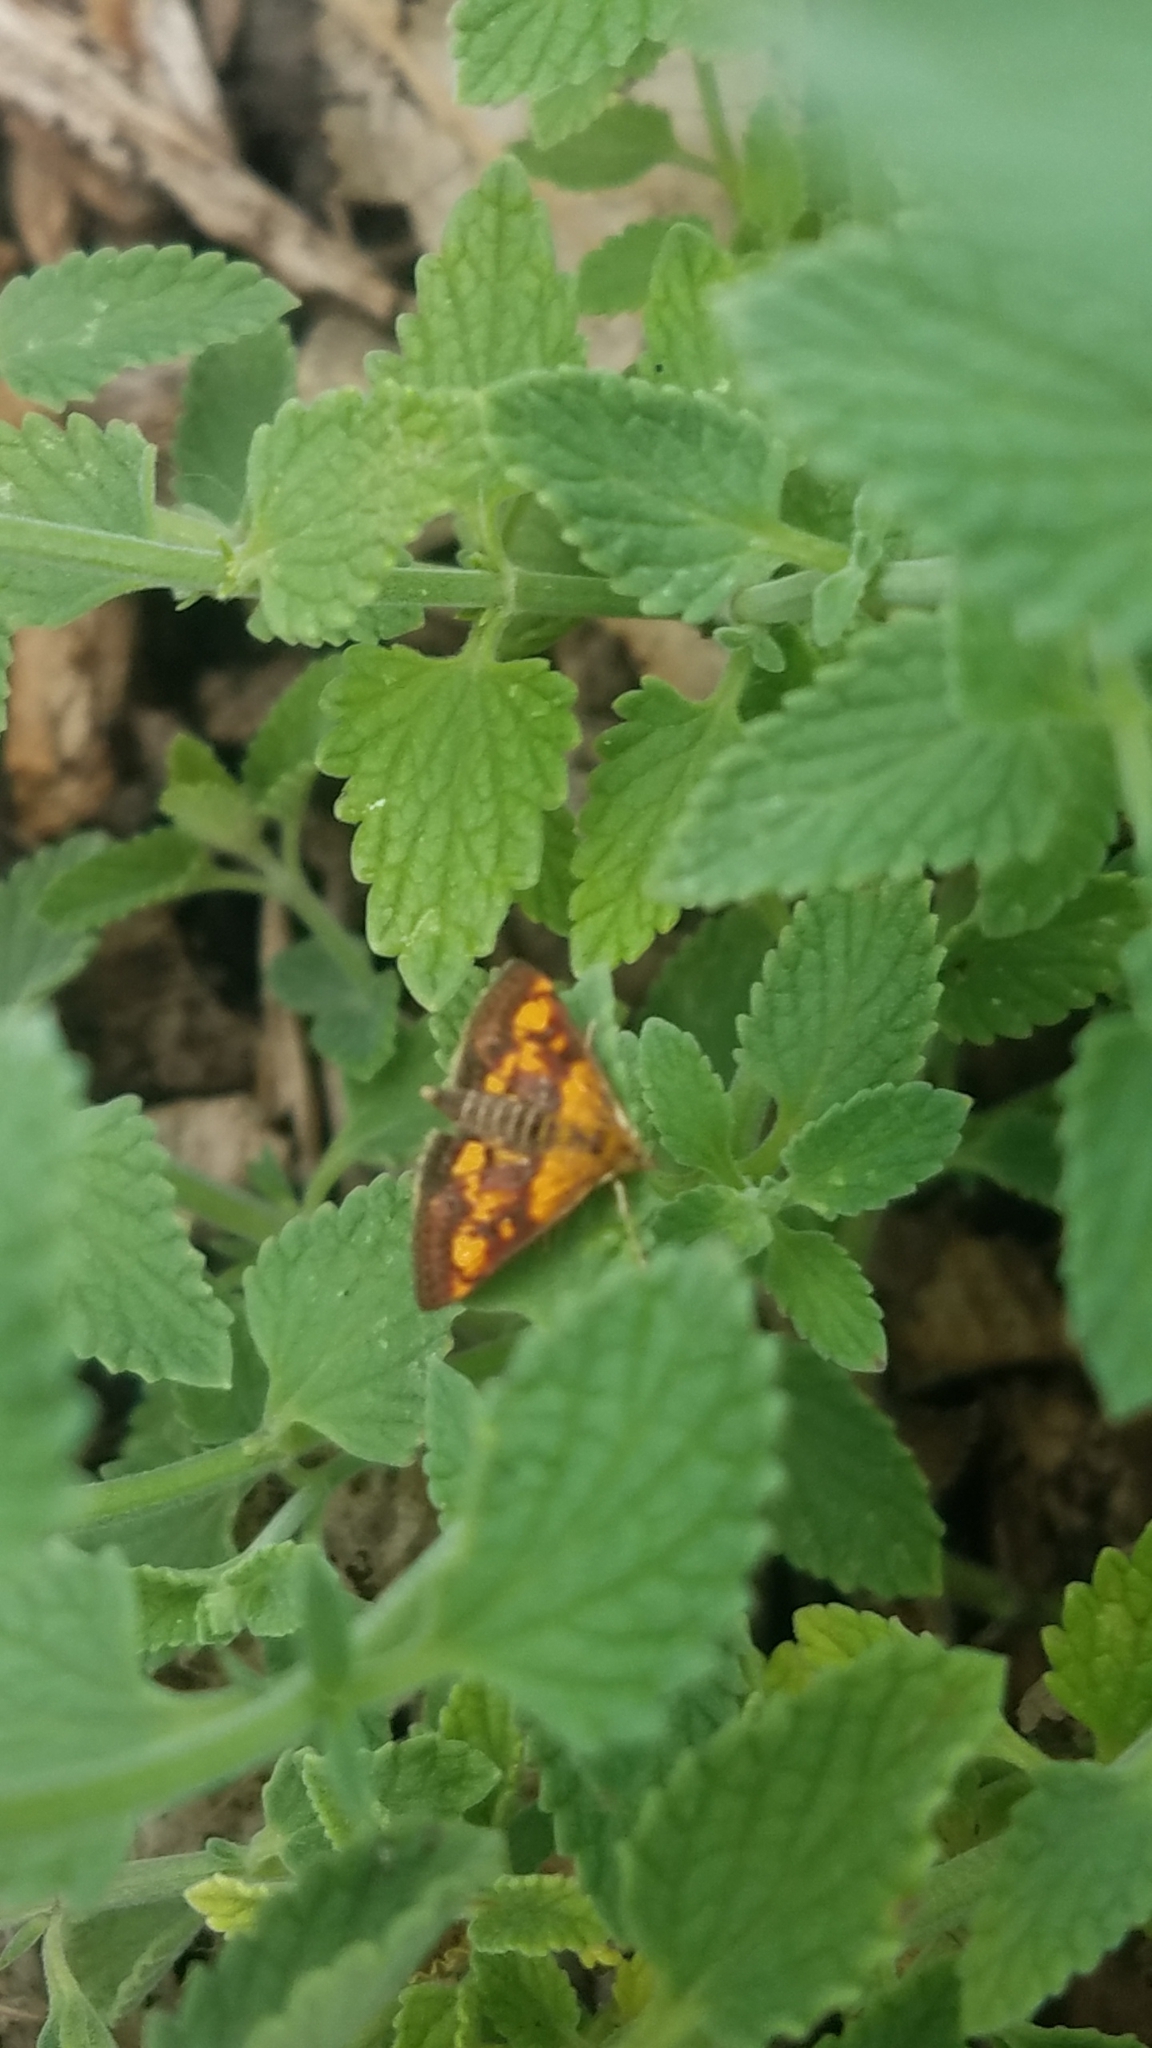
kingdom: Animalia
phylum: Arthropoda
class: Insecta
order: Lepidoptera
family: Crambidae
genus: Pyrausta
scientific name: Pyrausta orphisalis
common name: Orange mint moth
